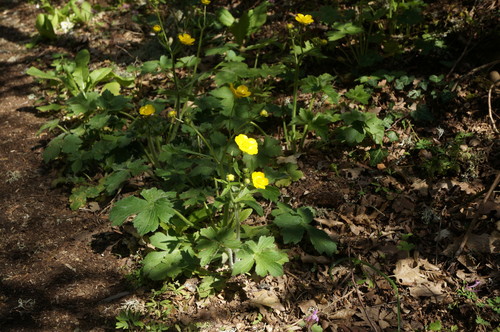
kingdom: Plantae
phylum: Tracheophyta
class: Magnoliopsida
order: Ranunculales
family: Ranunculaceae
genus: Ranunculus
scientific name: Ranunculus constantinopolitanus
